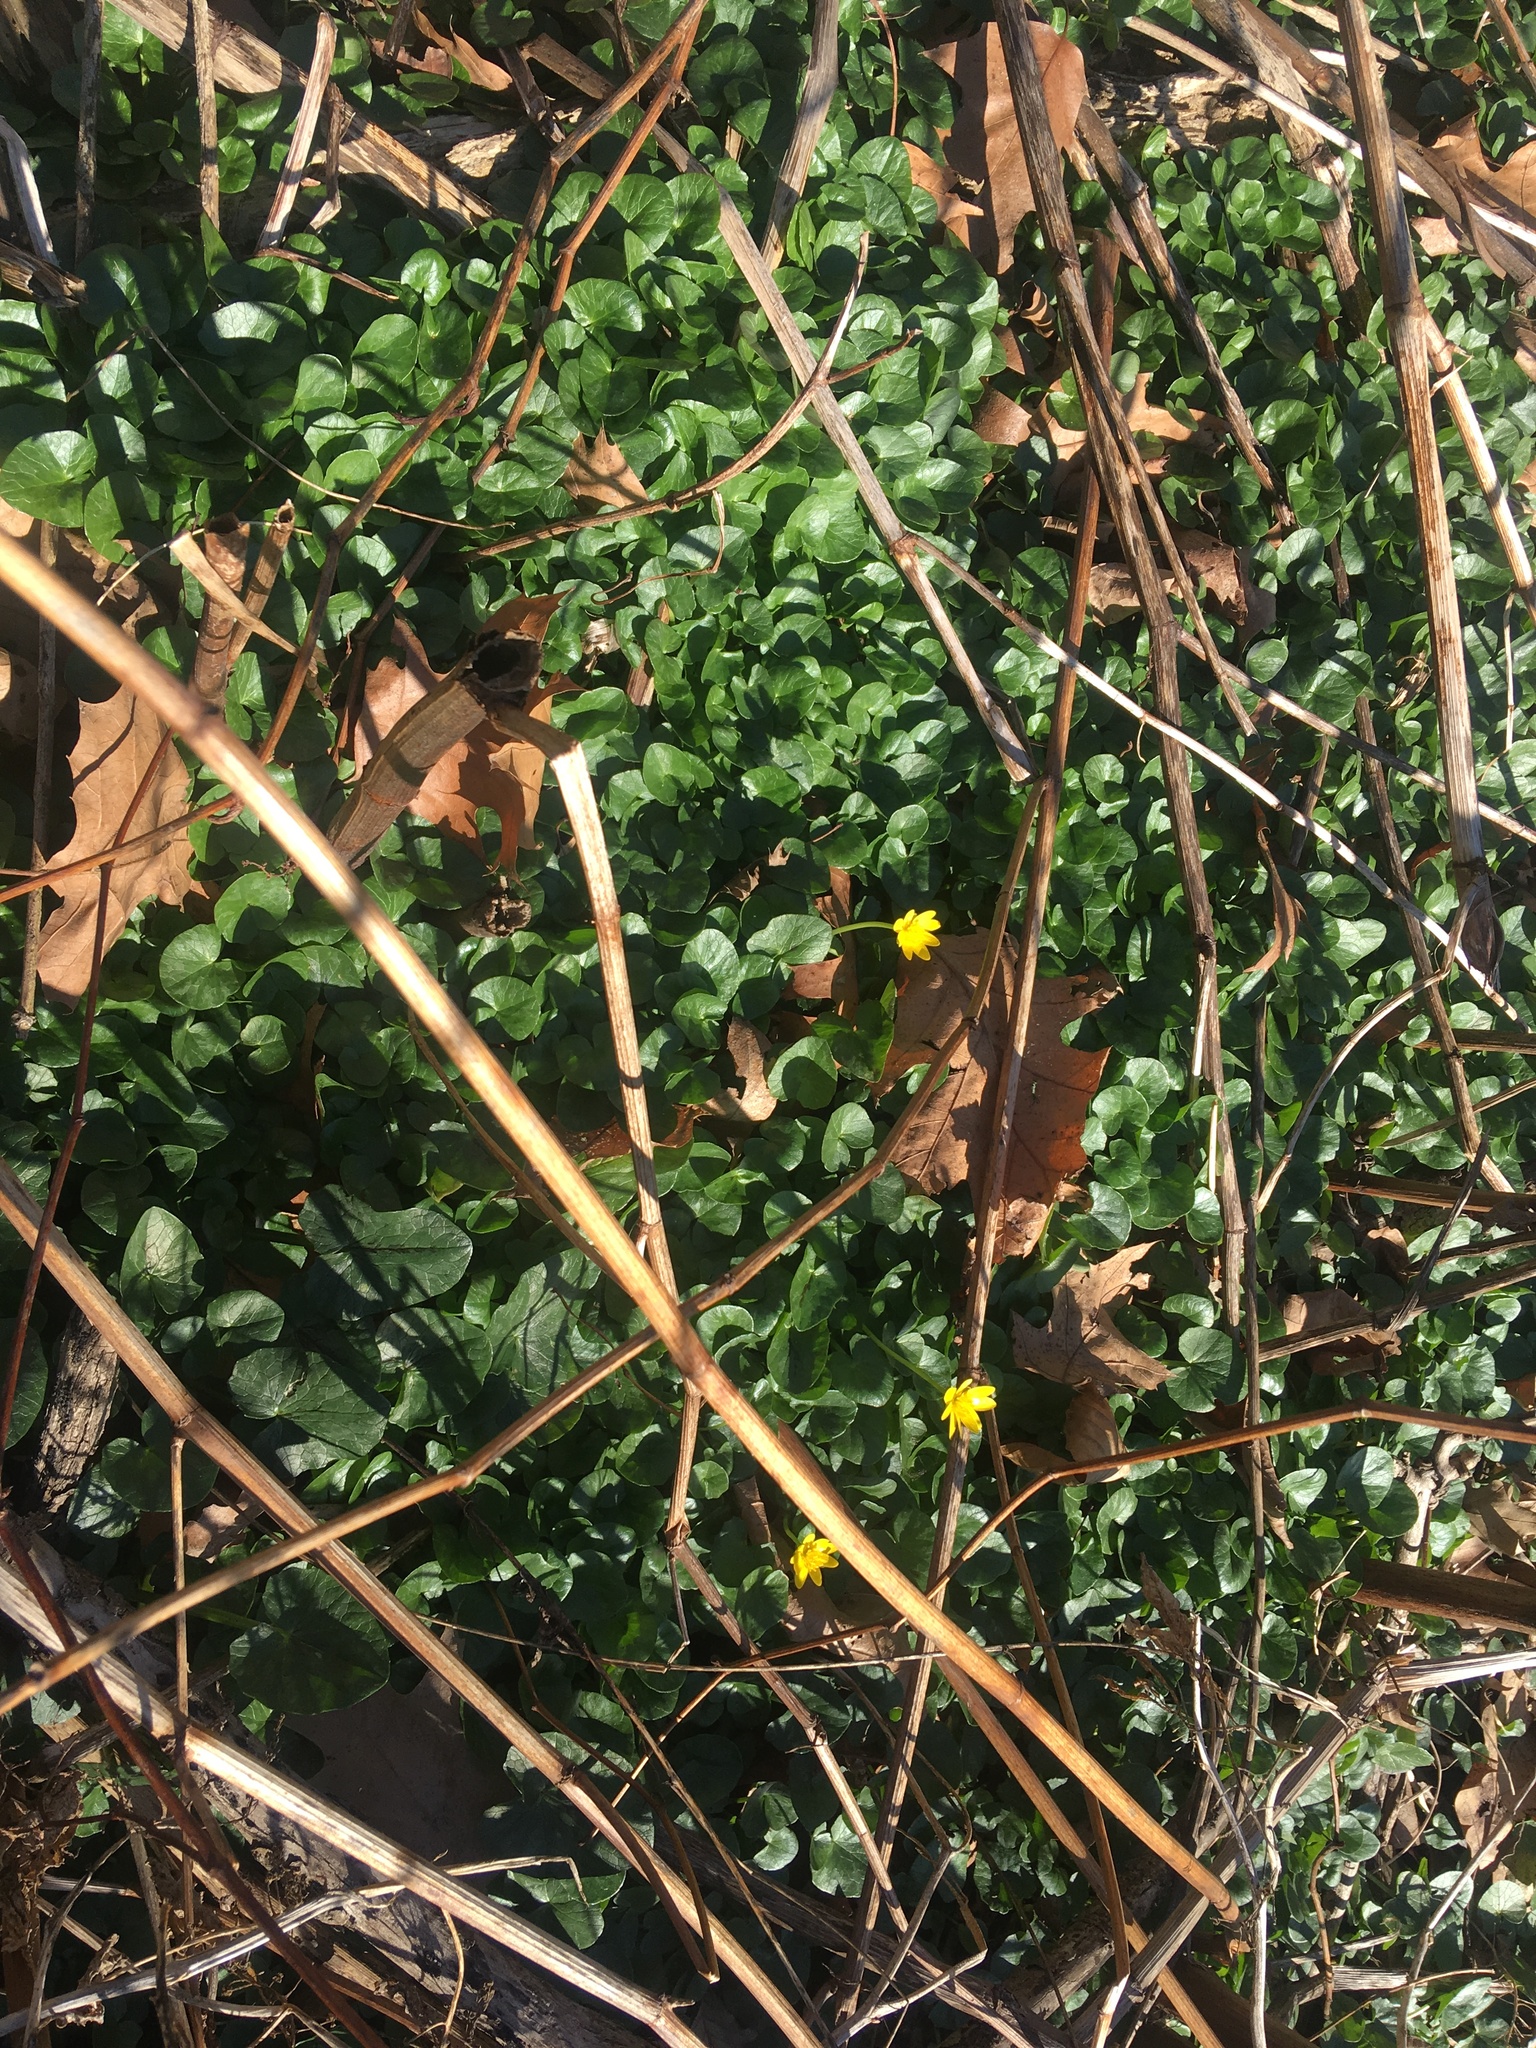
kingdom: Plantae
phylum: Tracheophyta
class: Magnoliopsida
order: Ranunculales
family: Ranunculaceae
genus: Ficaria
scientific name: Ficaria verna
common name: Lesser celandine
